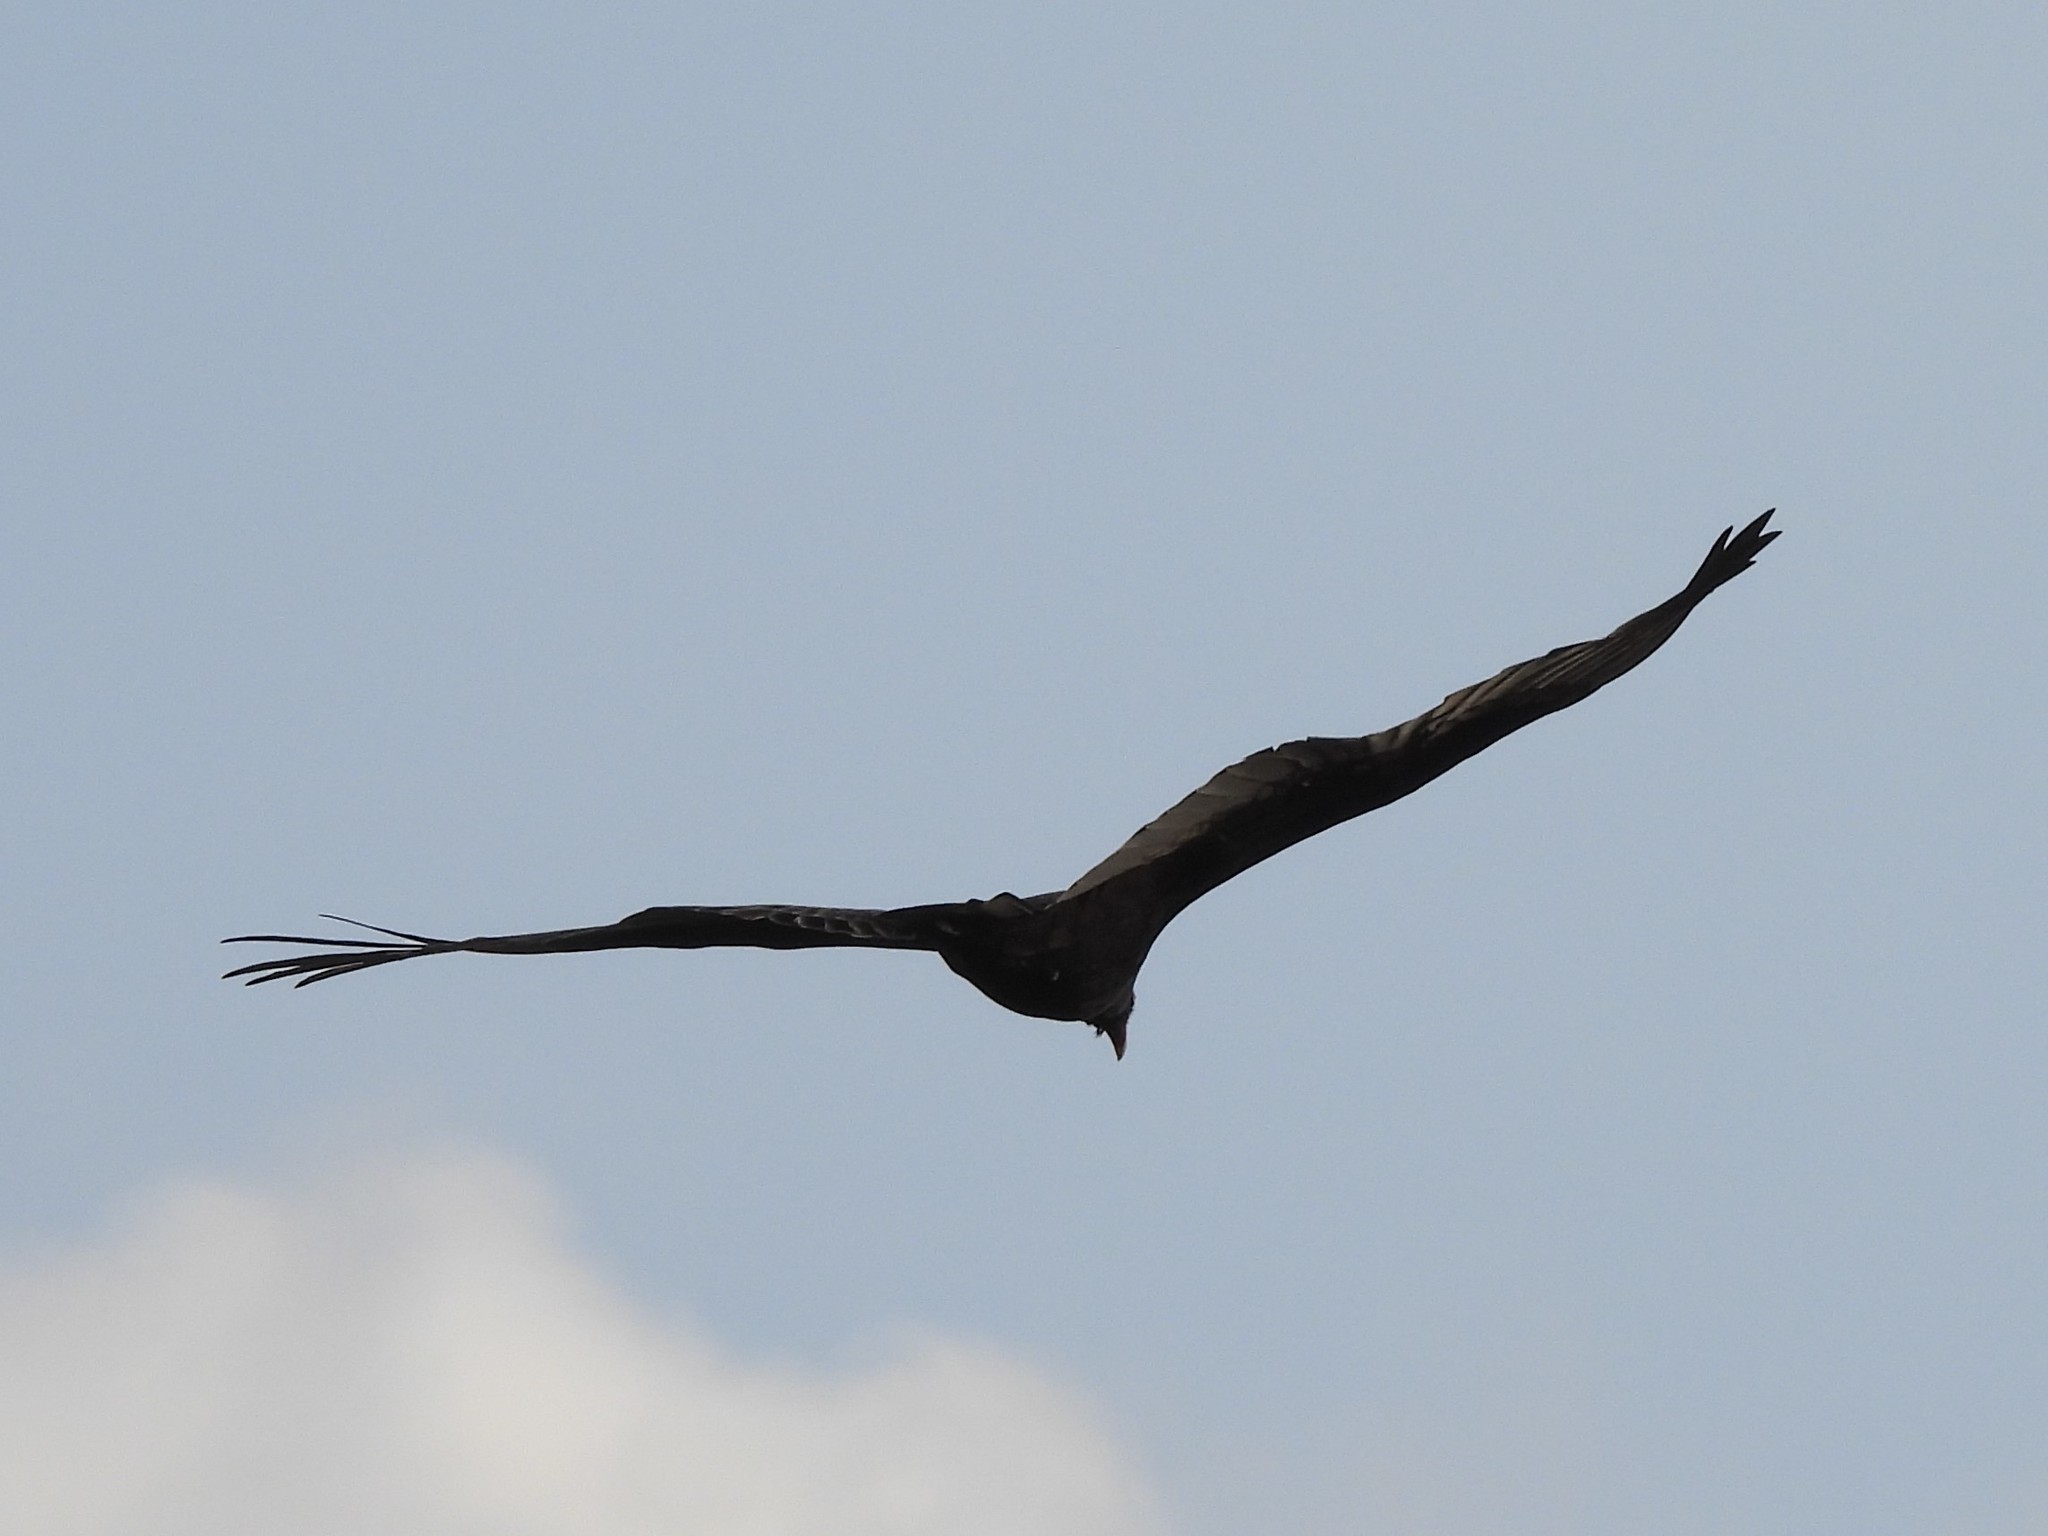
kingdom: Animalia
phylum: Chordata
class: Aves
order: Accipitriformes
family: Cathartidae
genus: Cathartes
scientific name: Cathartes aura
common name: Turkey vulture
